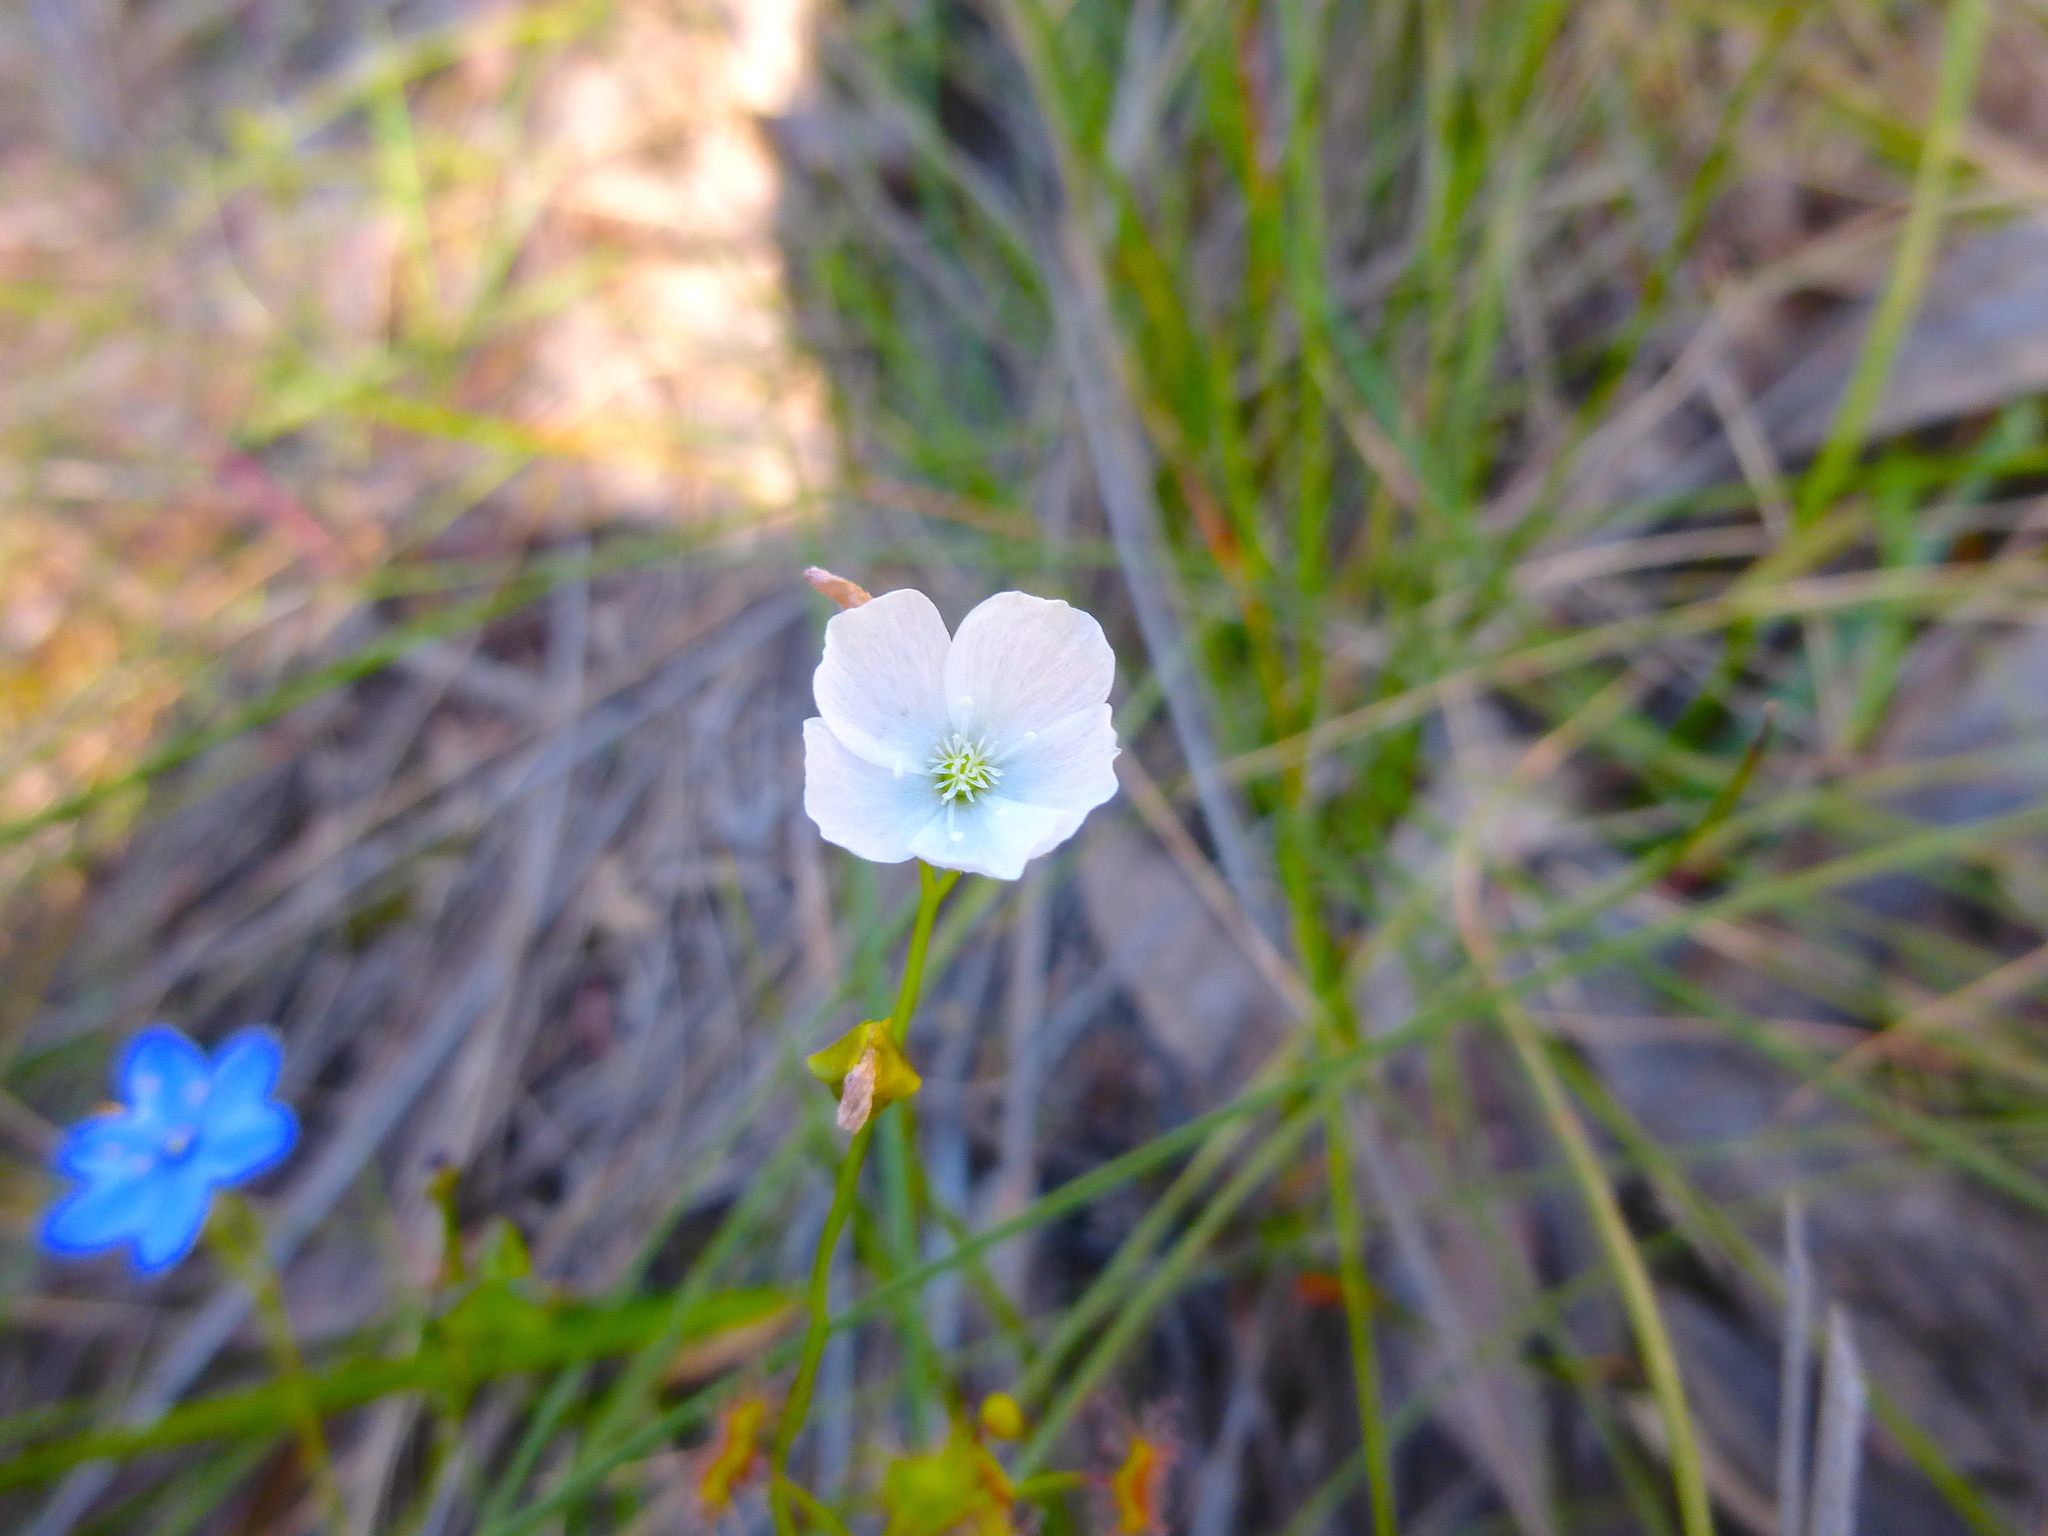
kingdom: Plantae
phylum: Tracheophyta
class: Magnoliopsida
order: Caryophyllales
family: Droseraceae
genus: Drosera
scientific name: Drosera peltata
